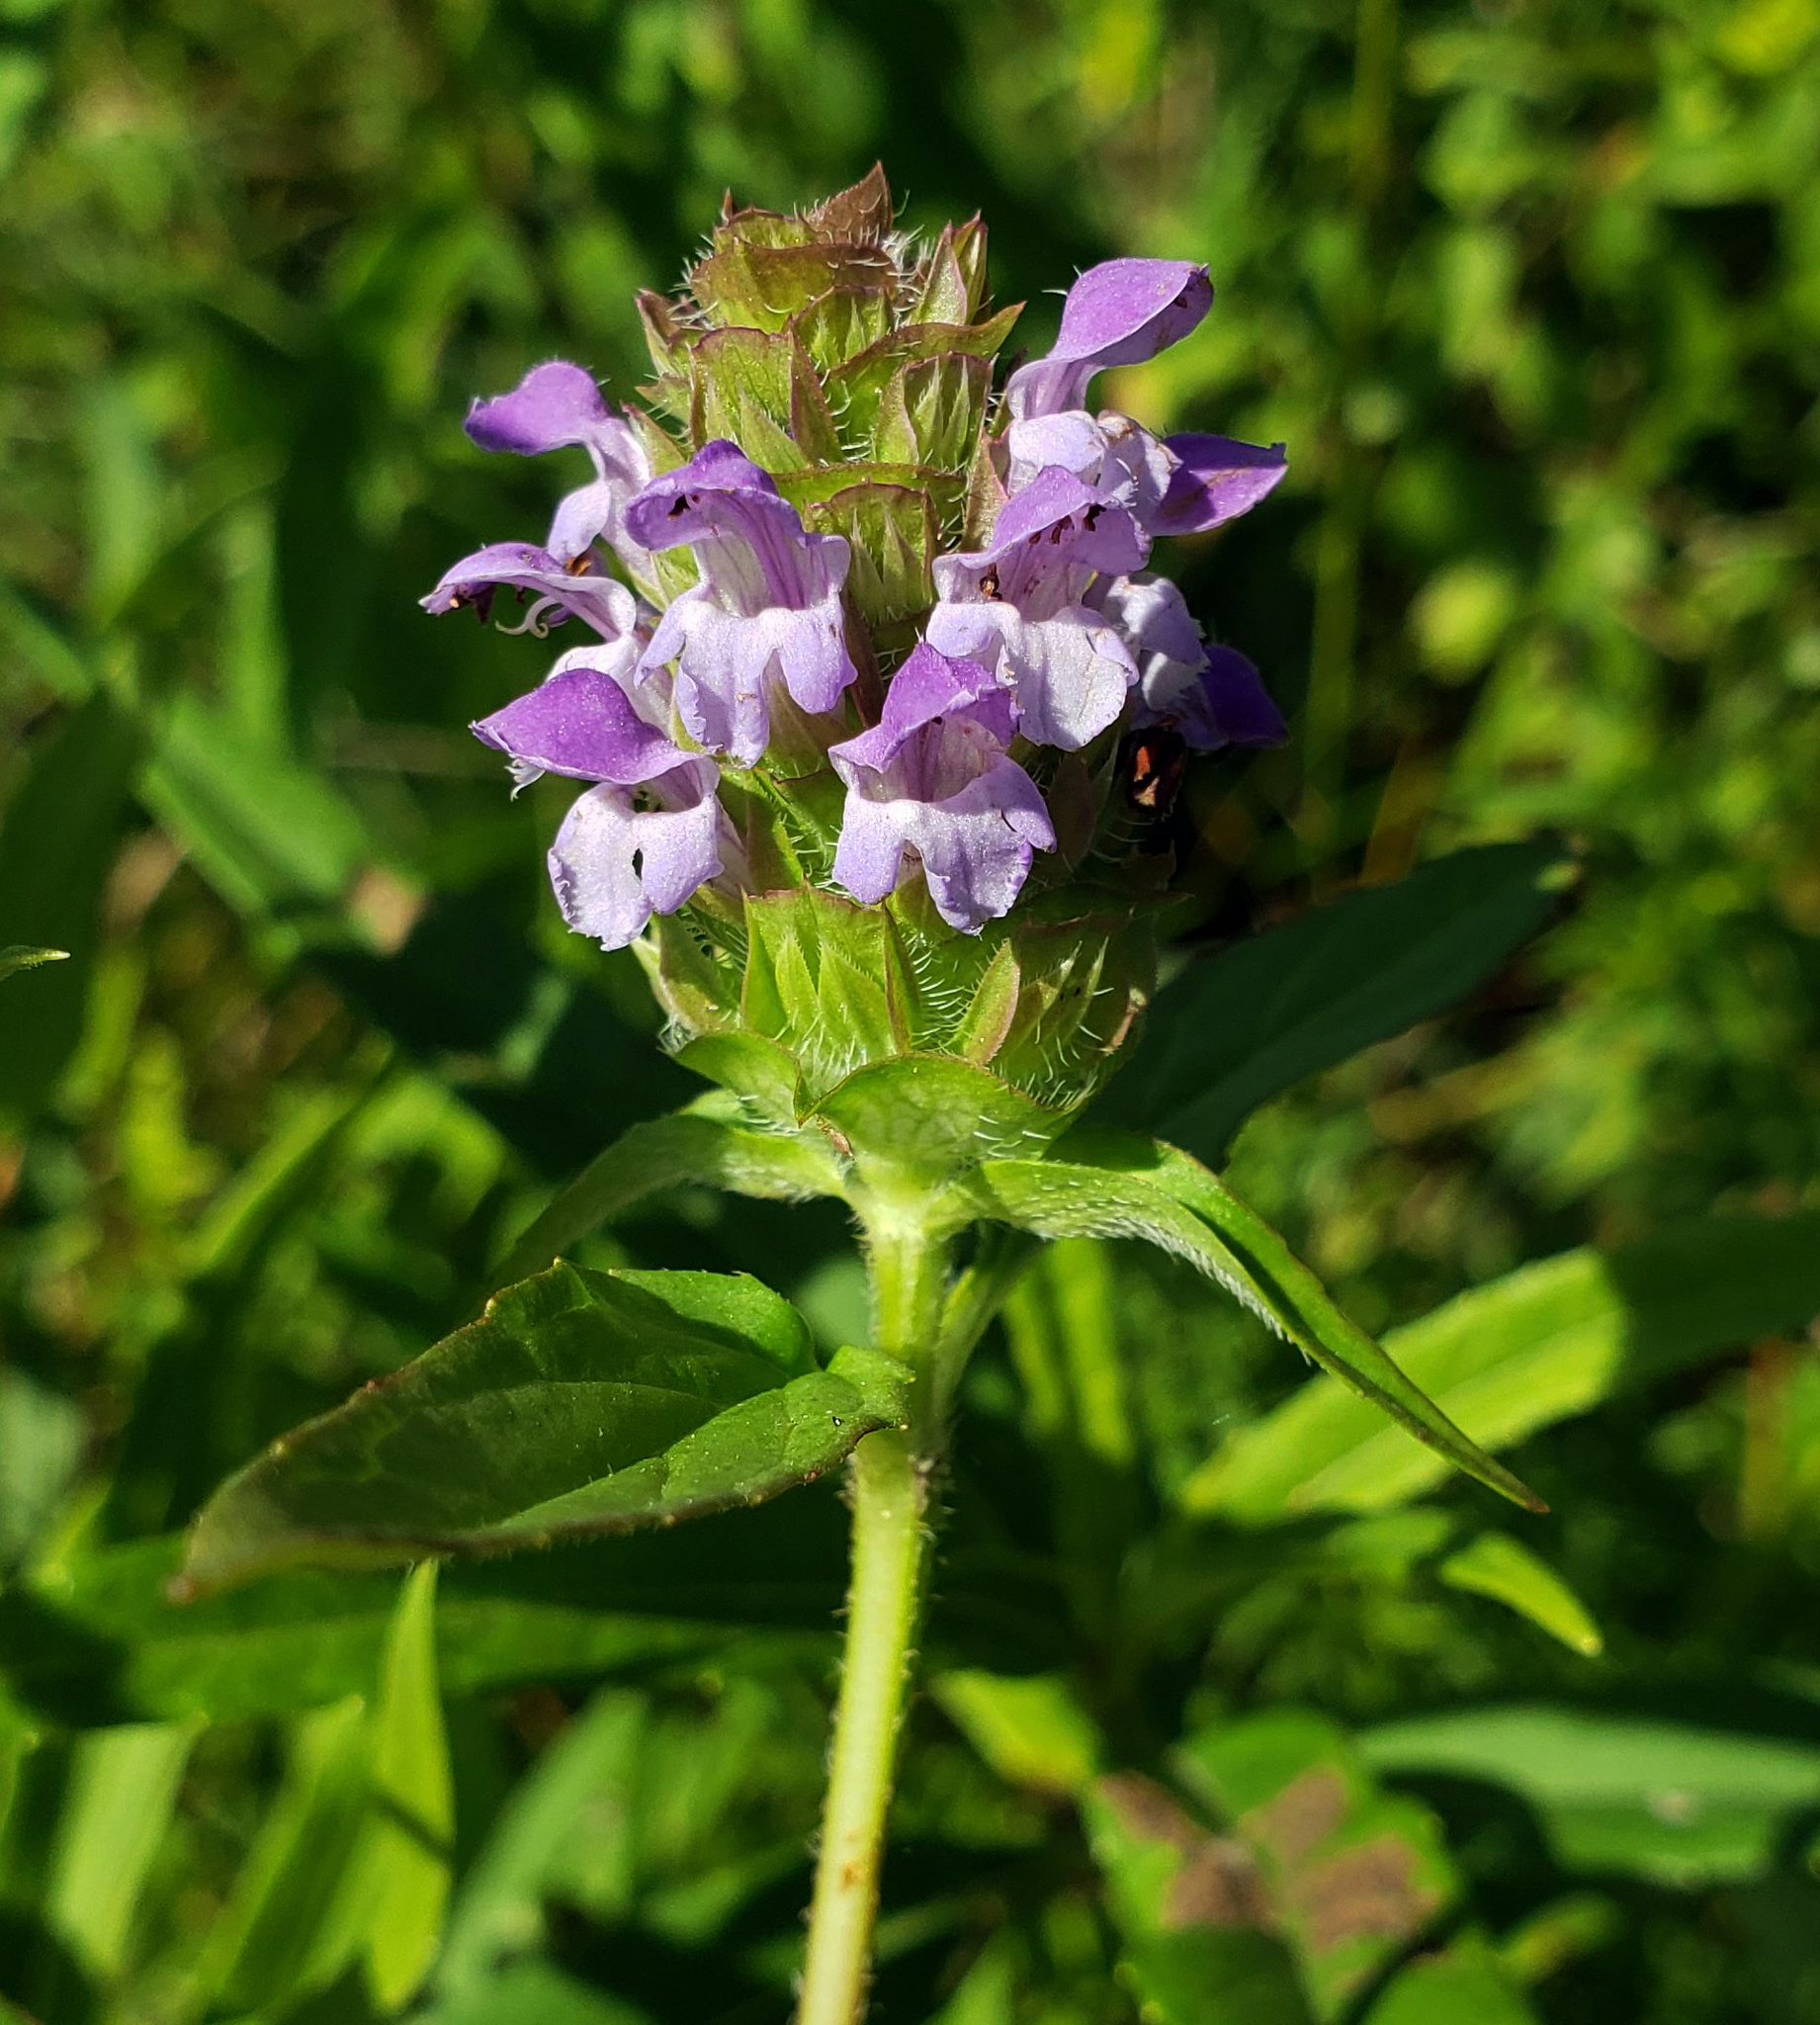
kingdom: Plantae
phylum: Tracheophyta
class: Magnoliopsida
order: Lamiales
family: Lamiaceae
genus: Prunella
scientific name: Prunella vulgaris
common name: Heal-all
